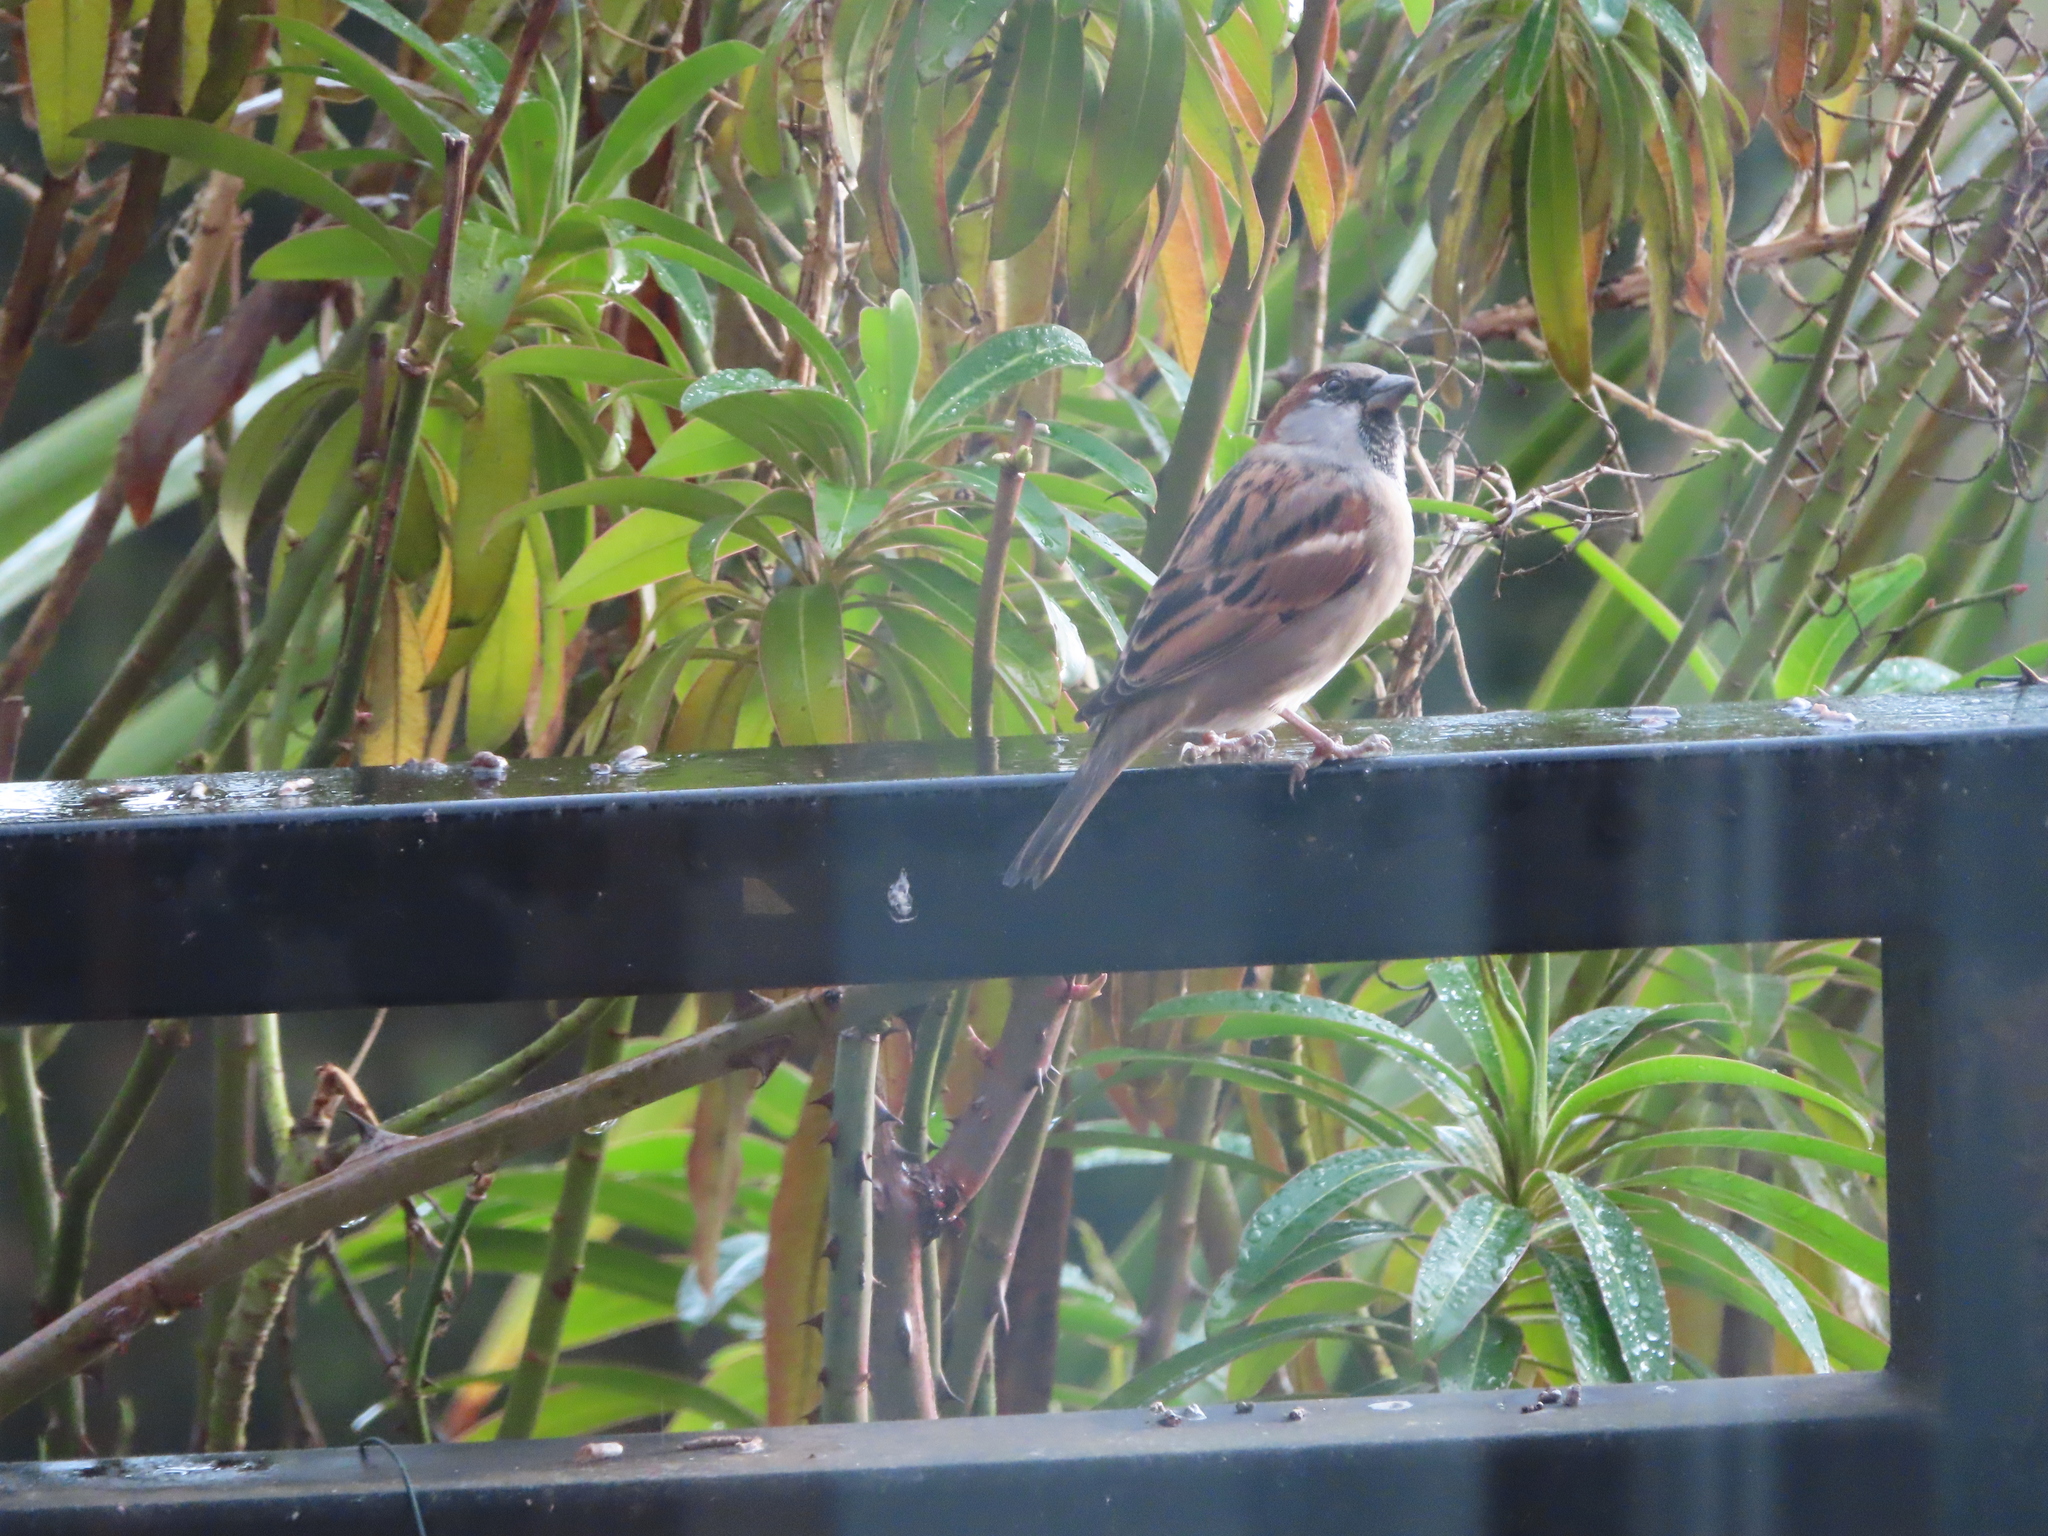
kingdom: Animalia
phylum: Chordata
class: Aves
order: Passeriformes
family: Passeridae
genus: Passer
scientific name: Passer domesticus
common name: House sparrow
